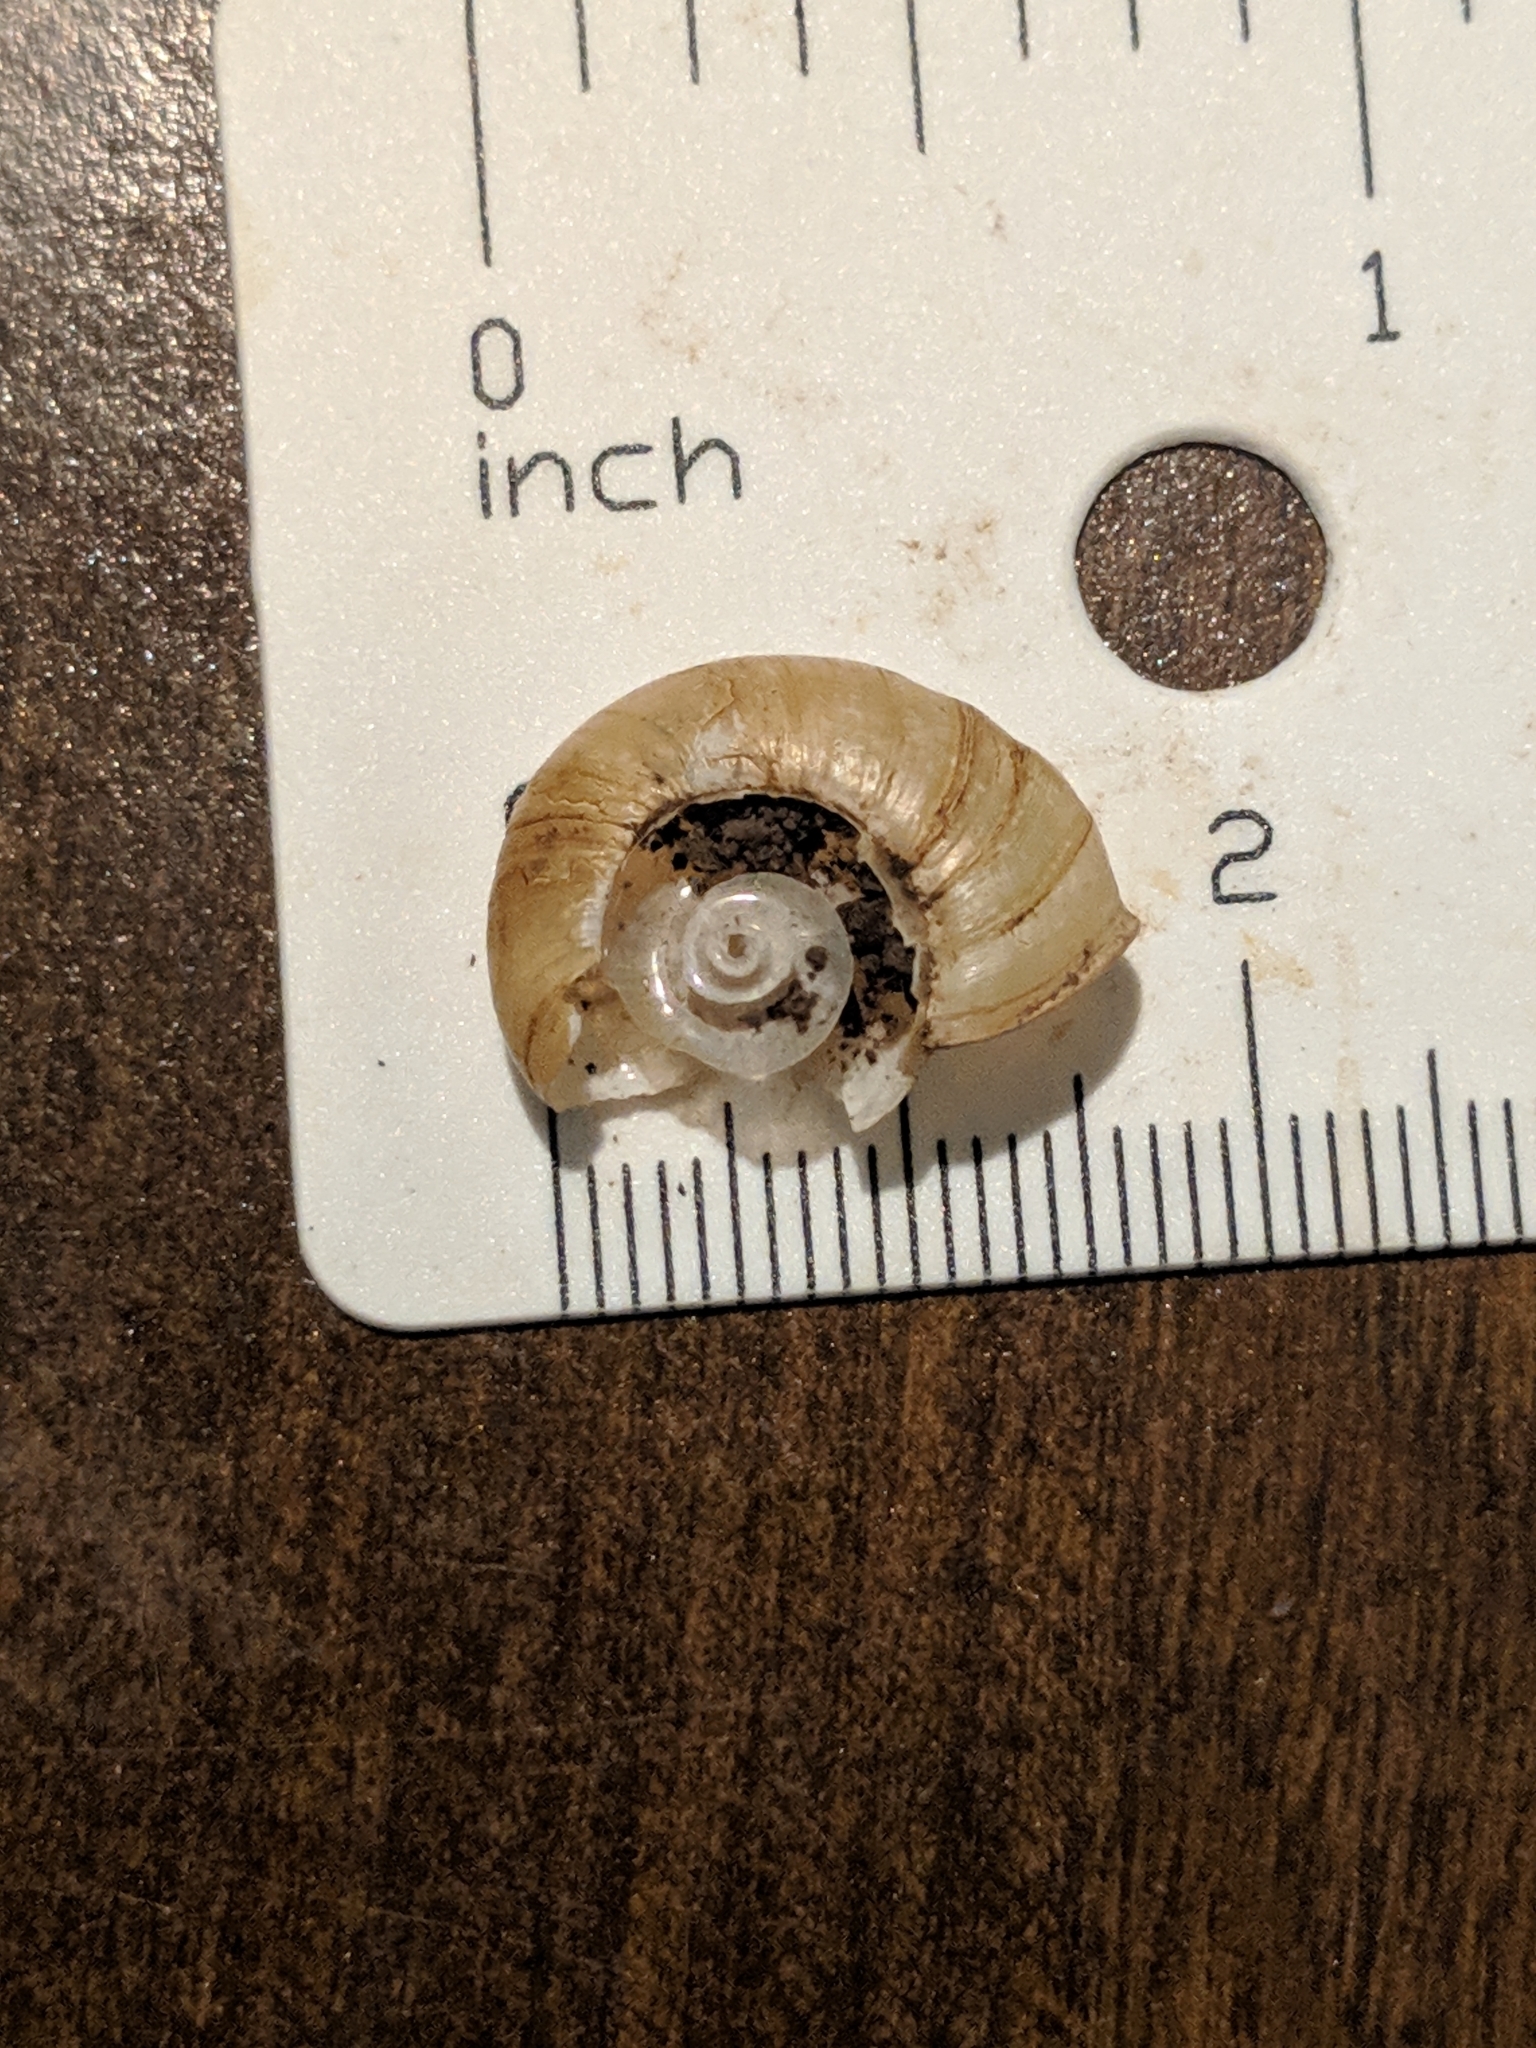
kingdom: Animalia
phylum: Mollusca
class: Gastropoda
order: Stylommatophora
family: Haplotrematidae
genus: Haplotrema
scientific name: Haplotrema concavum
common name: Gray-foot lancetooth
